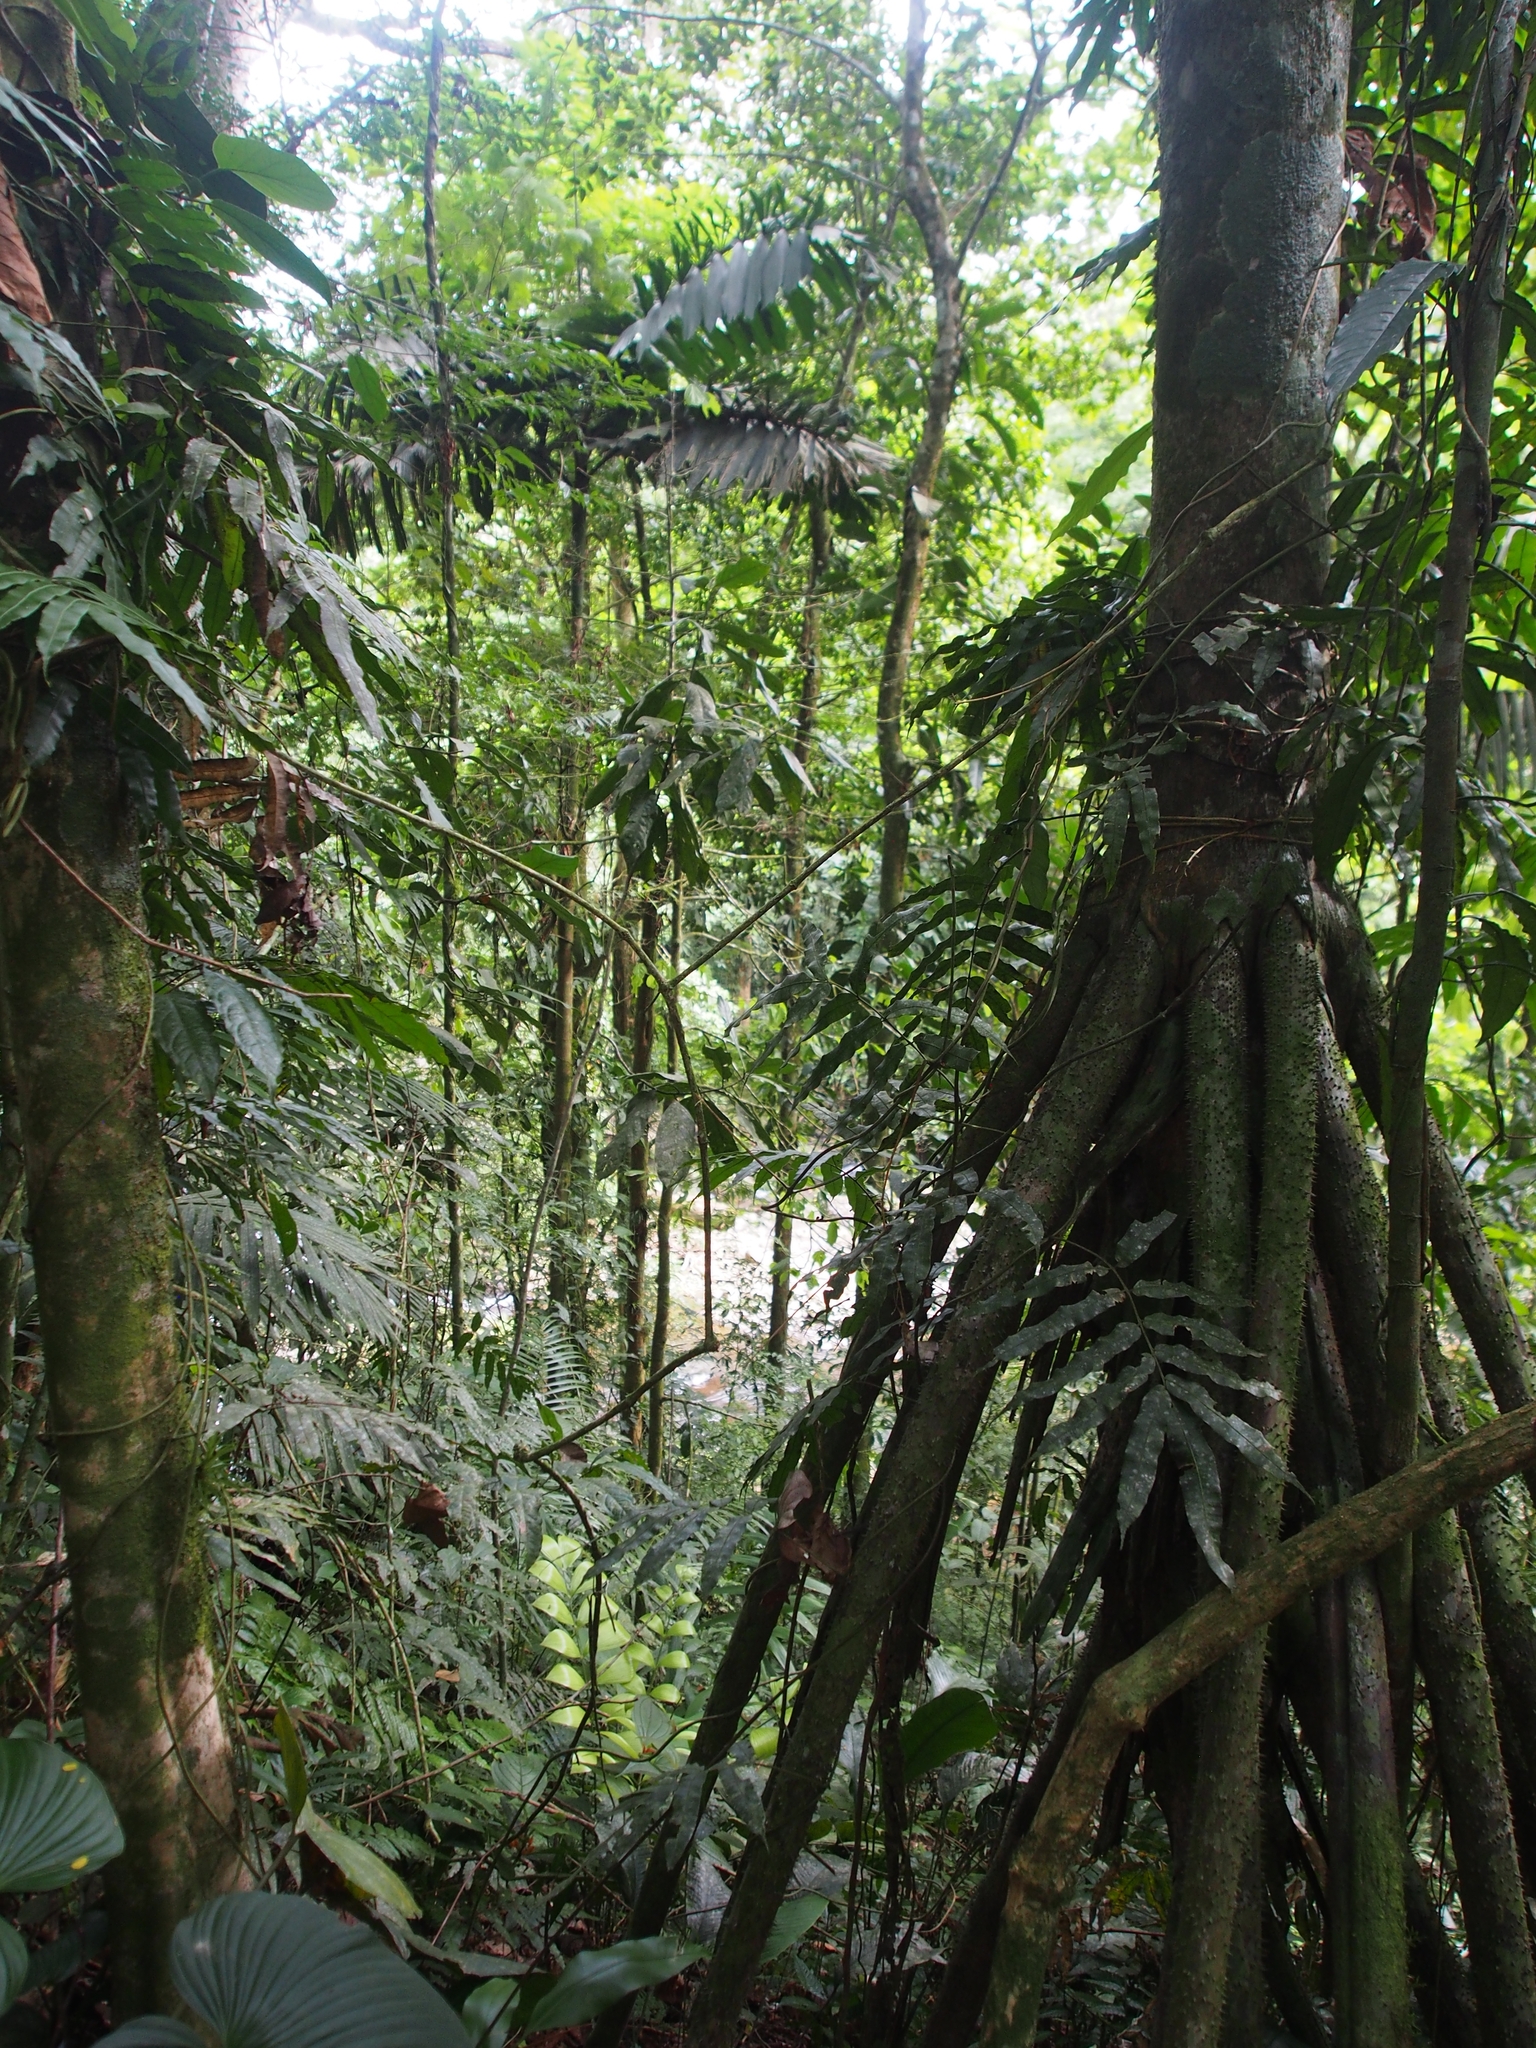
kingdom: Plantae
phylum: Tracheophyta
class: Liliopsida
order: Arecales
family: Arecaceae
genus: Socratea
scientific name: Socratea exorrhiza
